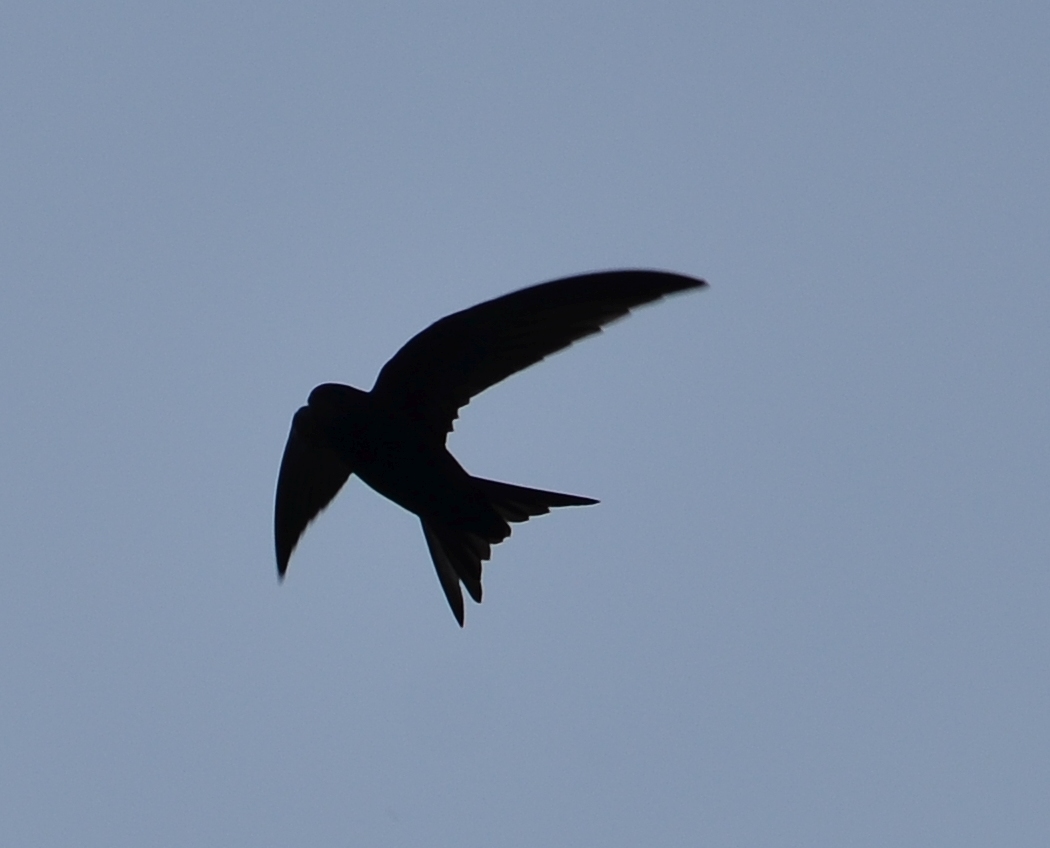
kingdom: Animalia
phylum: Chordata
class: Aves
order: Apodiformes
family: Apodidae
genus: Apus
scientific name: Apus apus
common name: Common swift
